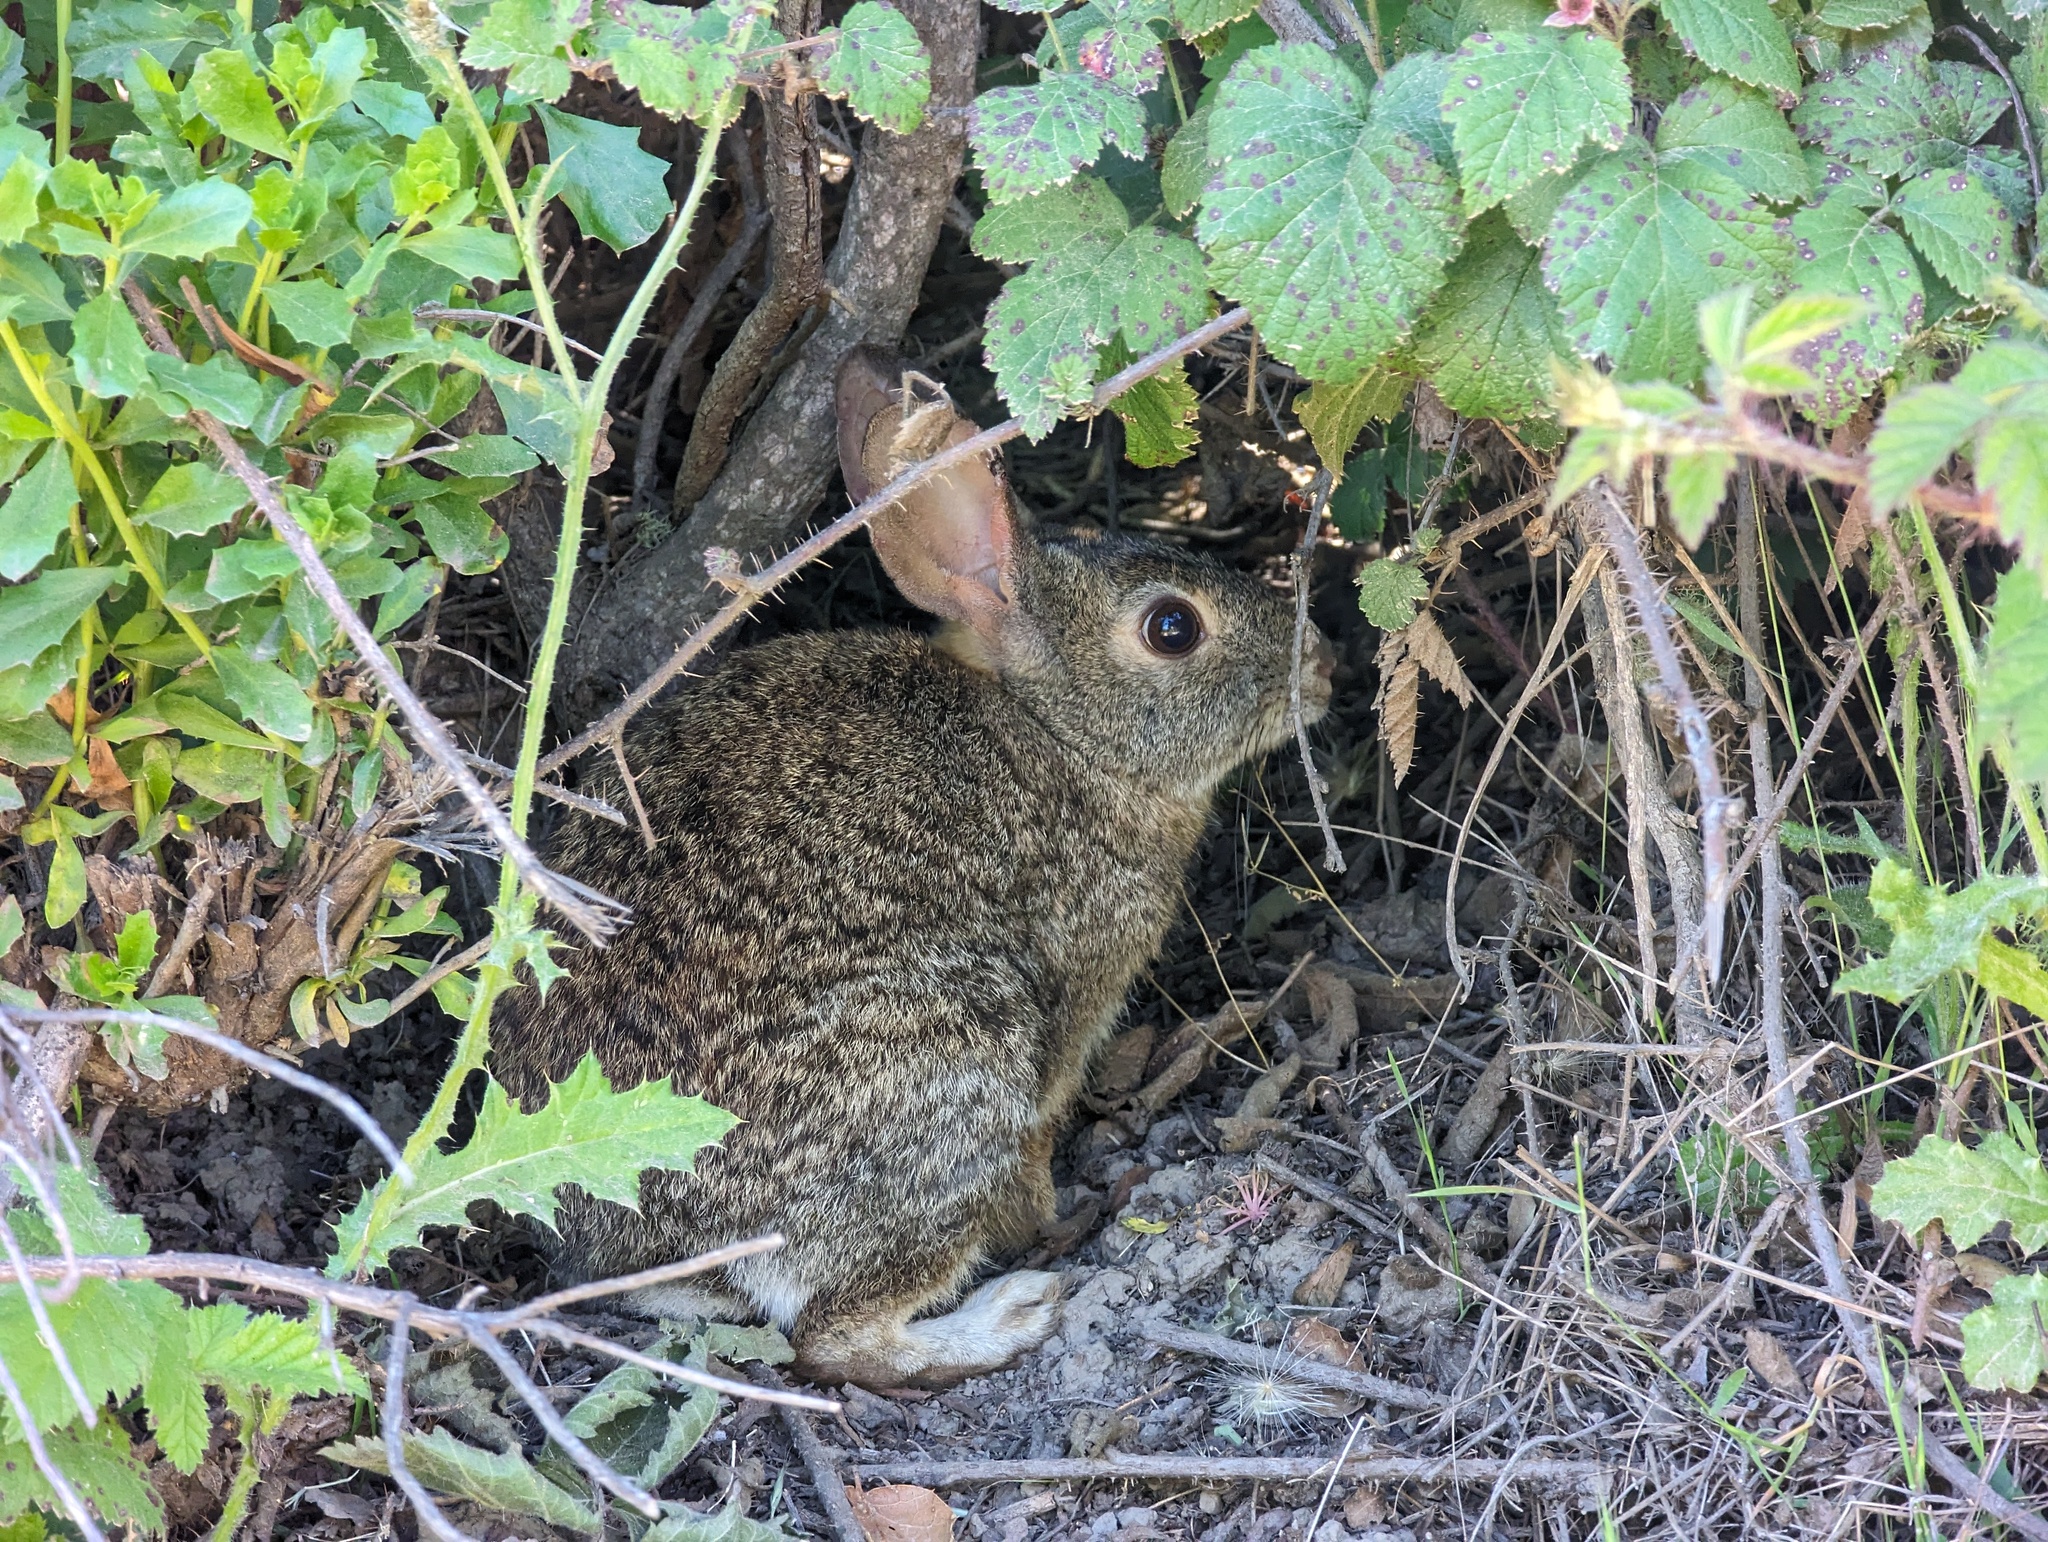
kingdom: Animalia
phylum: Chordata
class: Mammalia
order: Lagomorpha
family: Leporidae
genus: Sylvilagus
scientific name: Sylvilagus bachmani
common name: Brush rabbit
